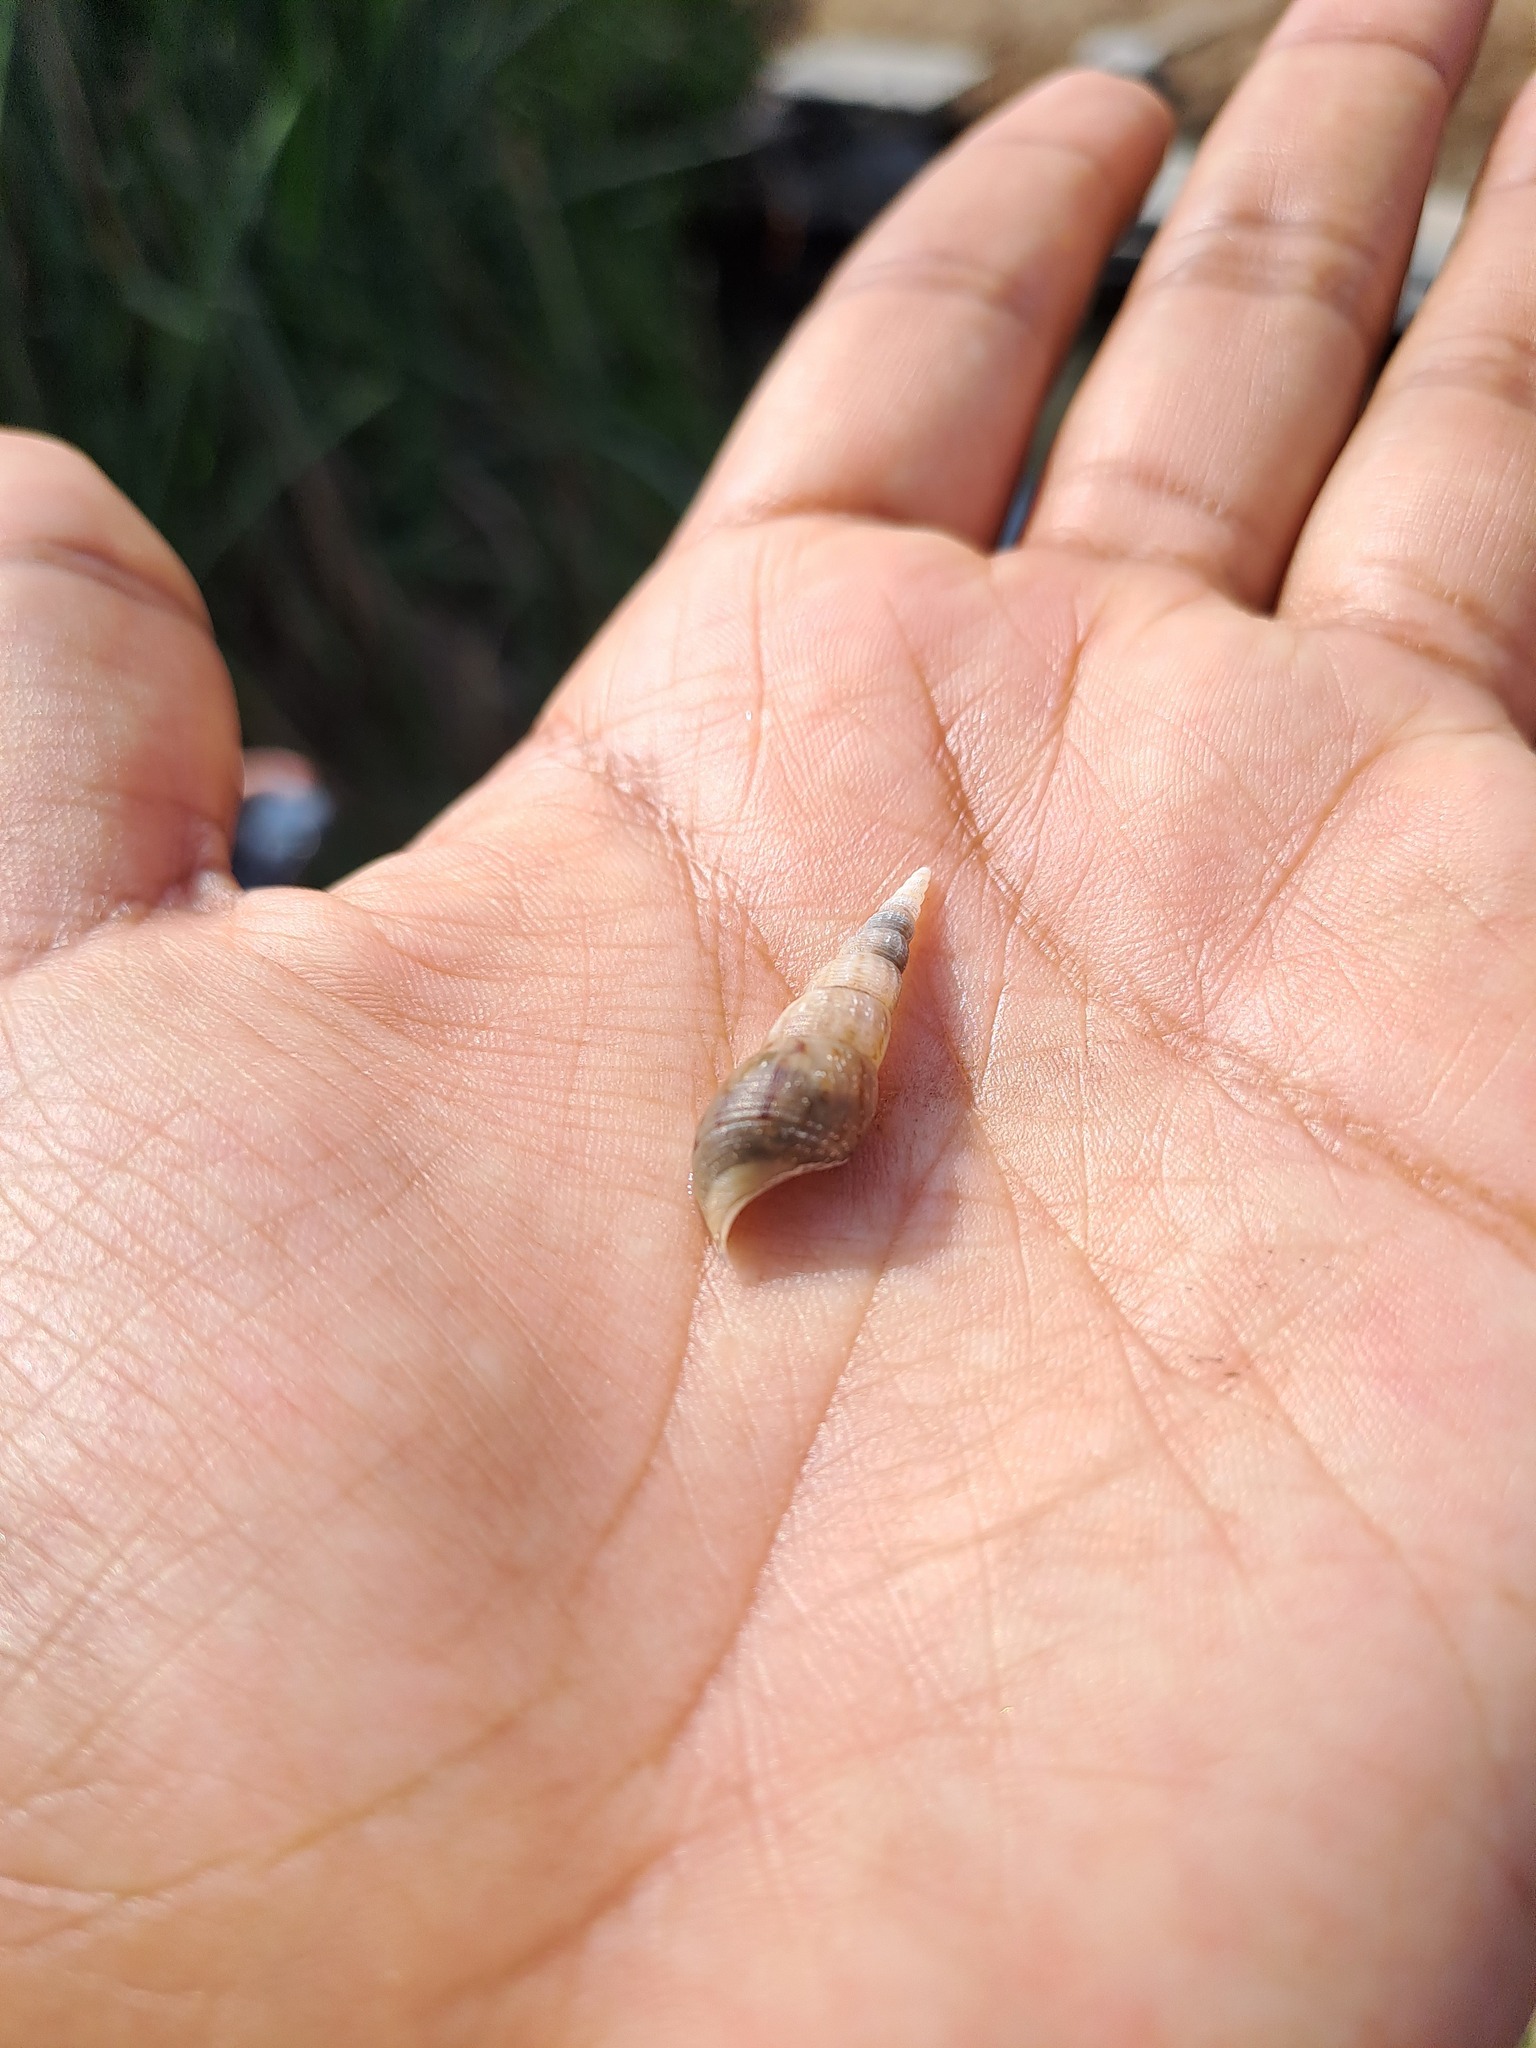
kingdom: Animalia
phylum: Mollusca
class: Gastropoda
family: Thiaridae
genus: Melanoides
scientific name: Melanoides tuberculata
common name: Red-rim melania
